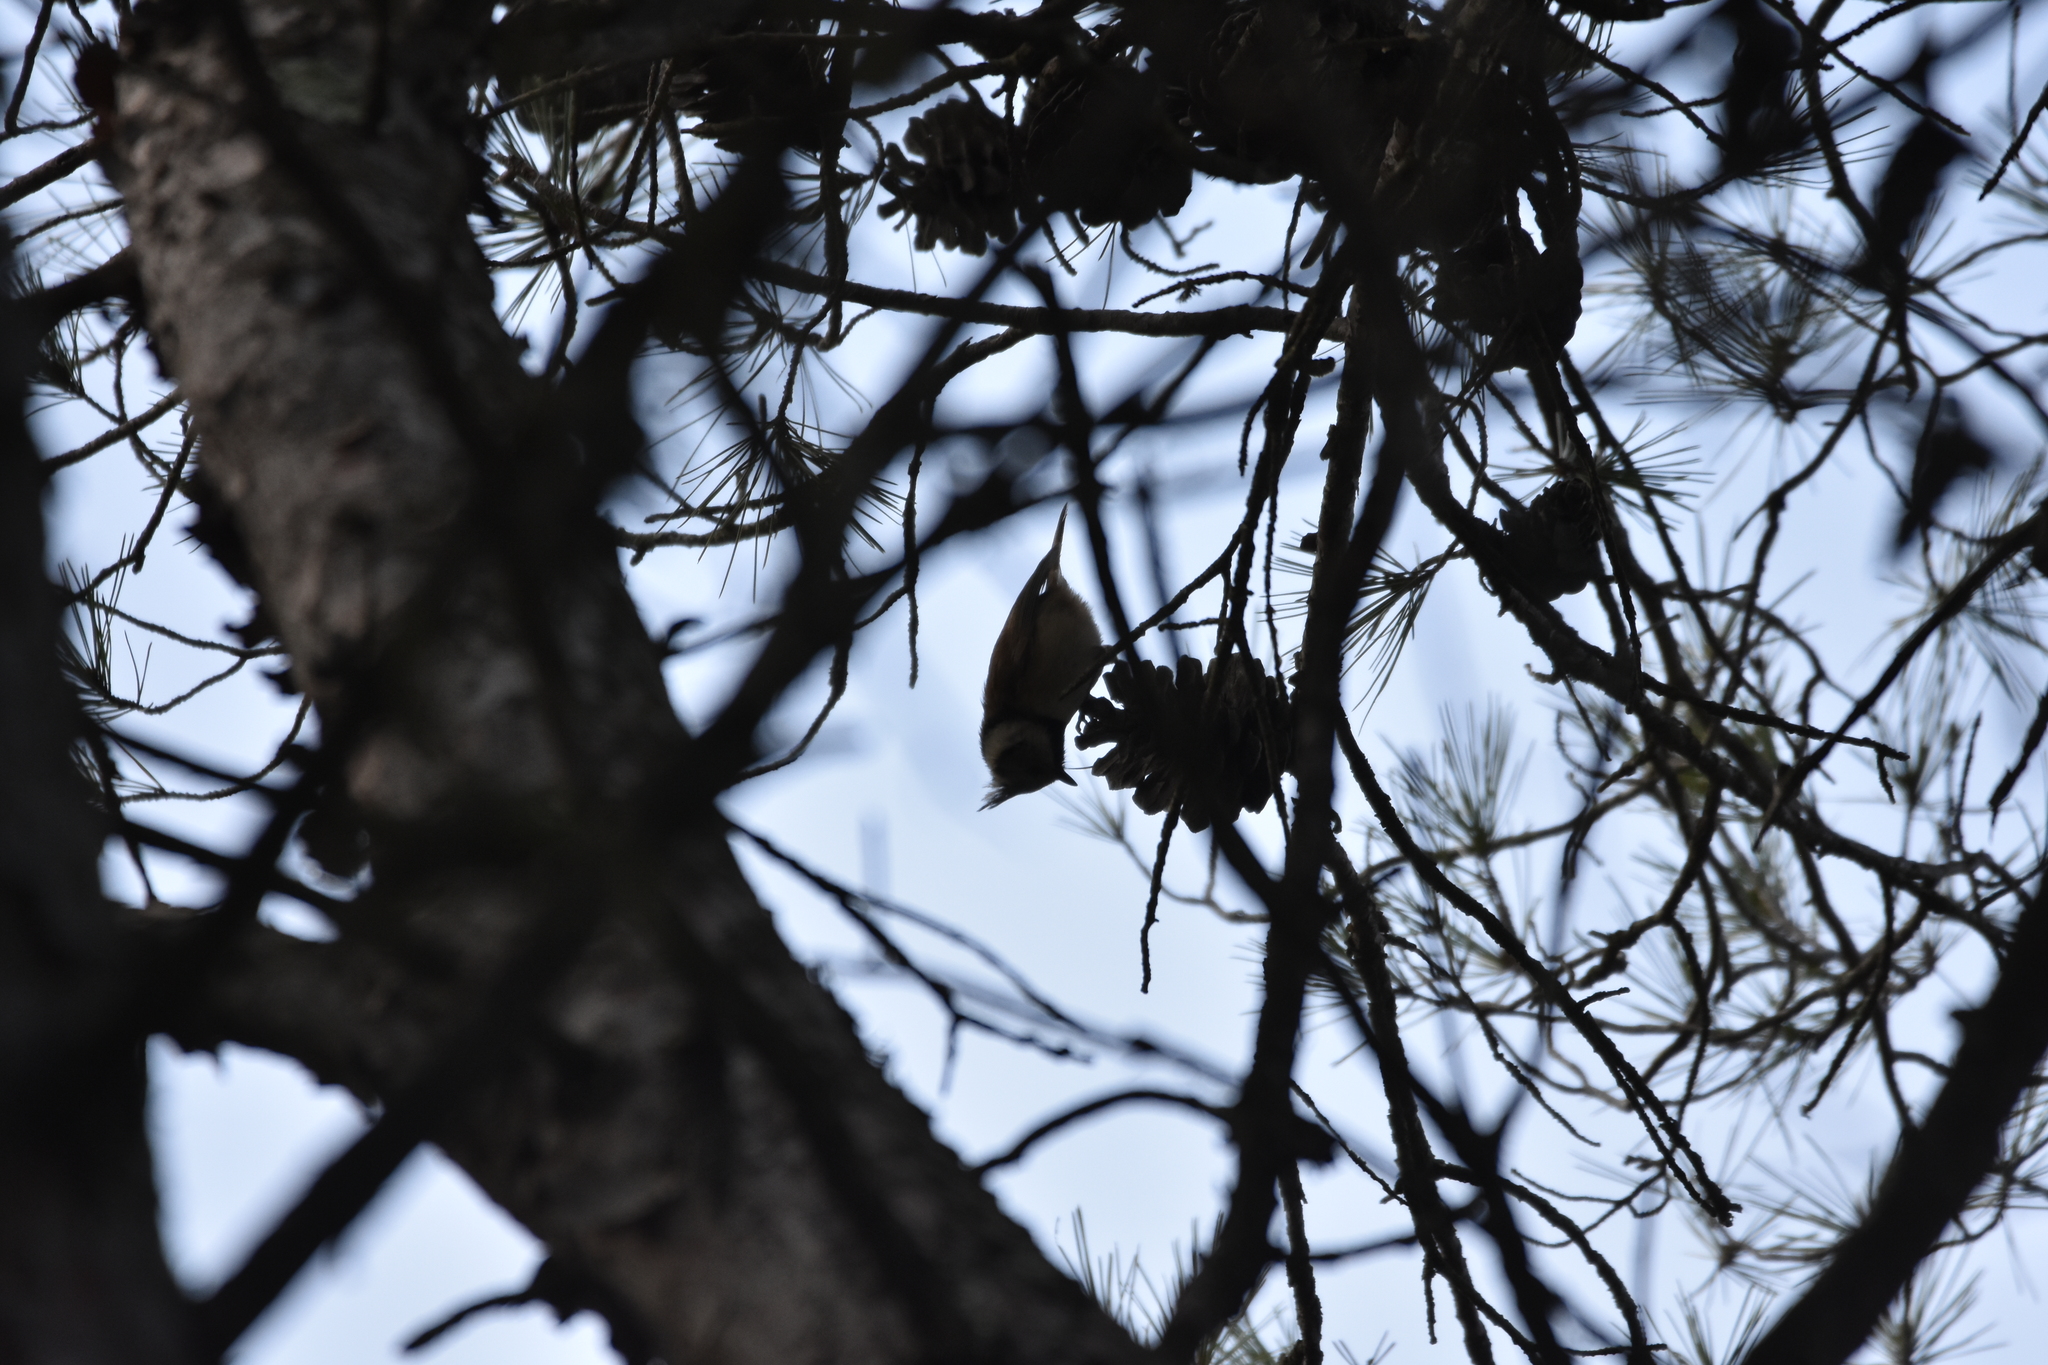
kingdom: Animalia
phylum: Chordata
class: Aves
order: Passeriformes
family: Paridae
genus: Lophophanes
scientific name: Lophophanes cristatus
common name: European crested tit
